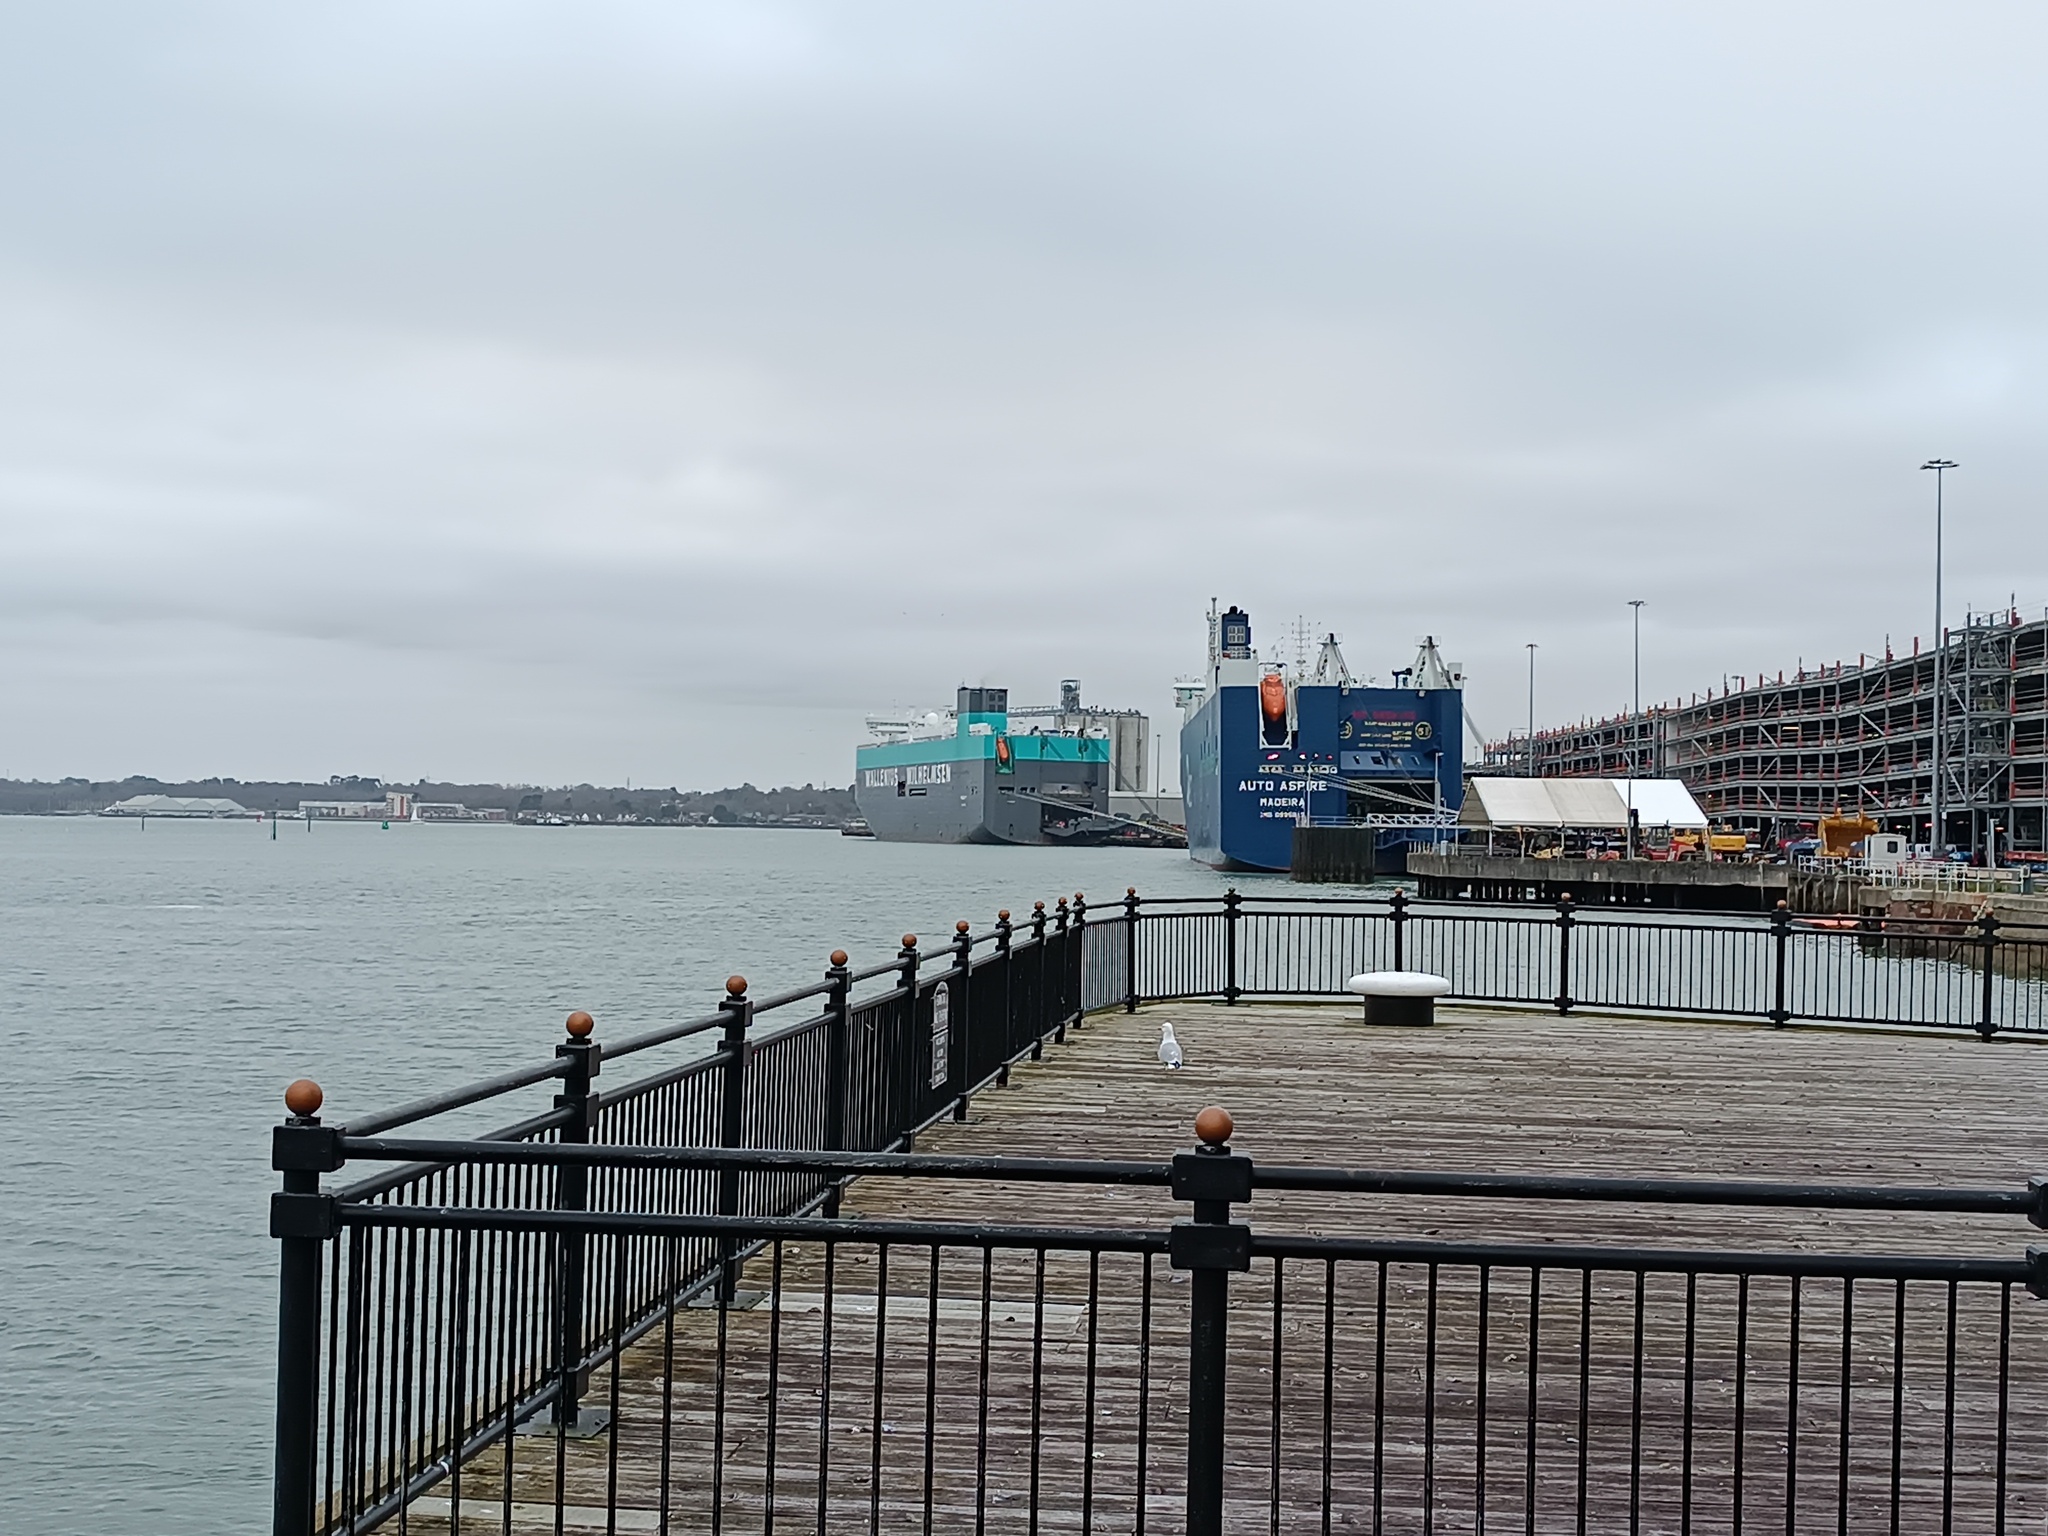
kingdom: Animalia
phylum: Chordata
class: Aves
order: Charadriiformes
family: Laridae
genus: Larus
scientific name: Larus argentatus
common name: Herring gull
